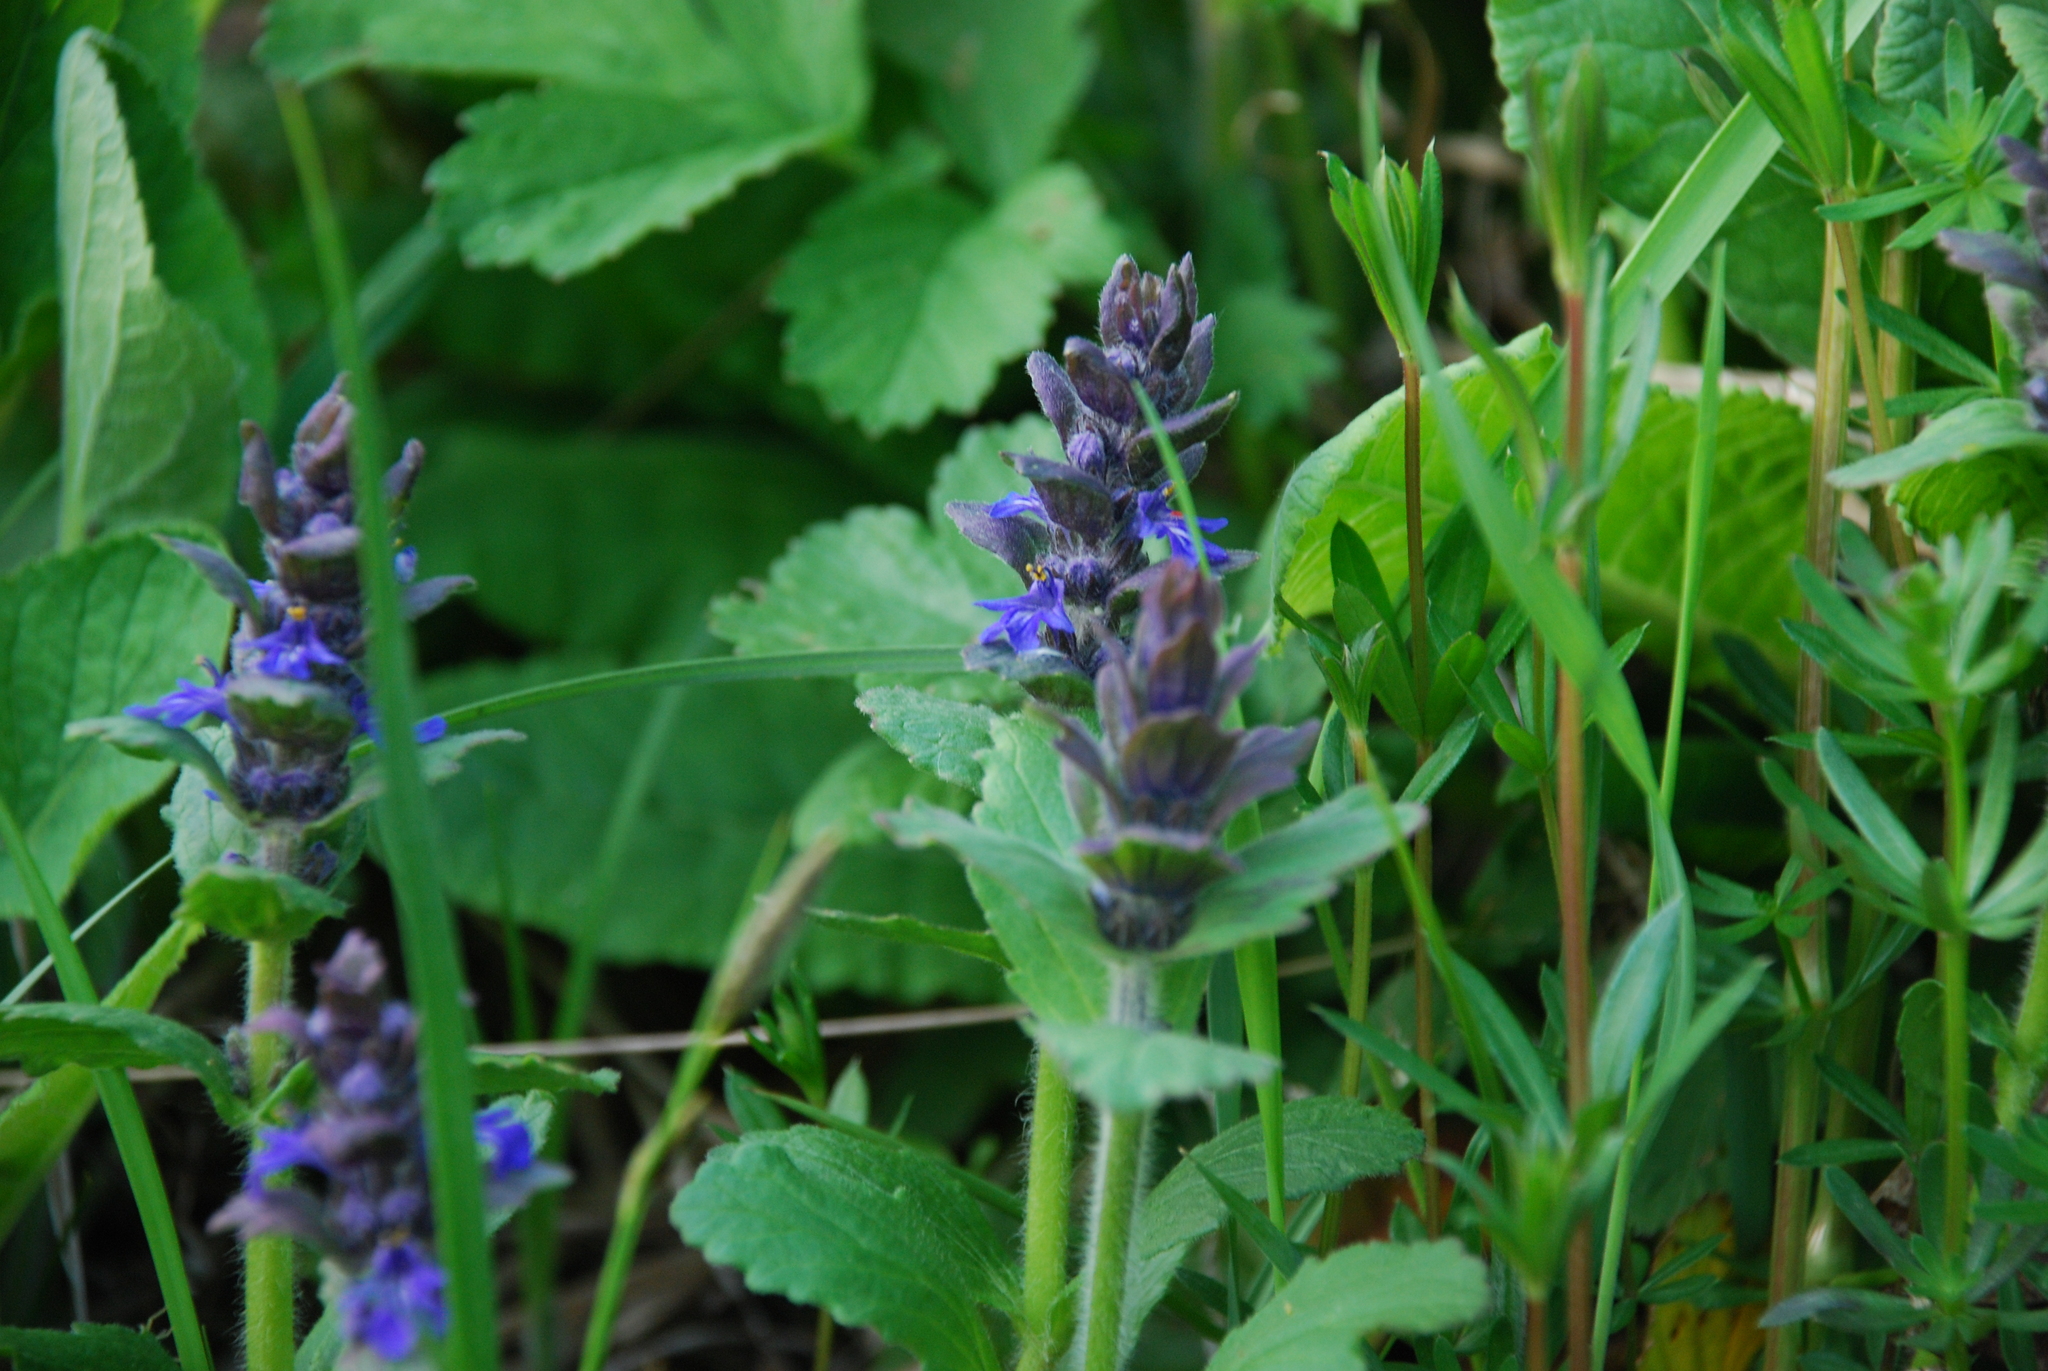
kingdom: Plantae
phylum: Tracheophyta
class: Magnoliopsida
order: Lamiales
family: Lamiaceae
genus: Ajuga
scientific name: Ajuga genevensis
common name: Blue bugle
